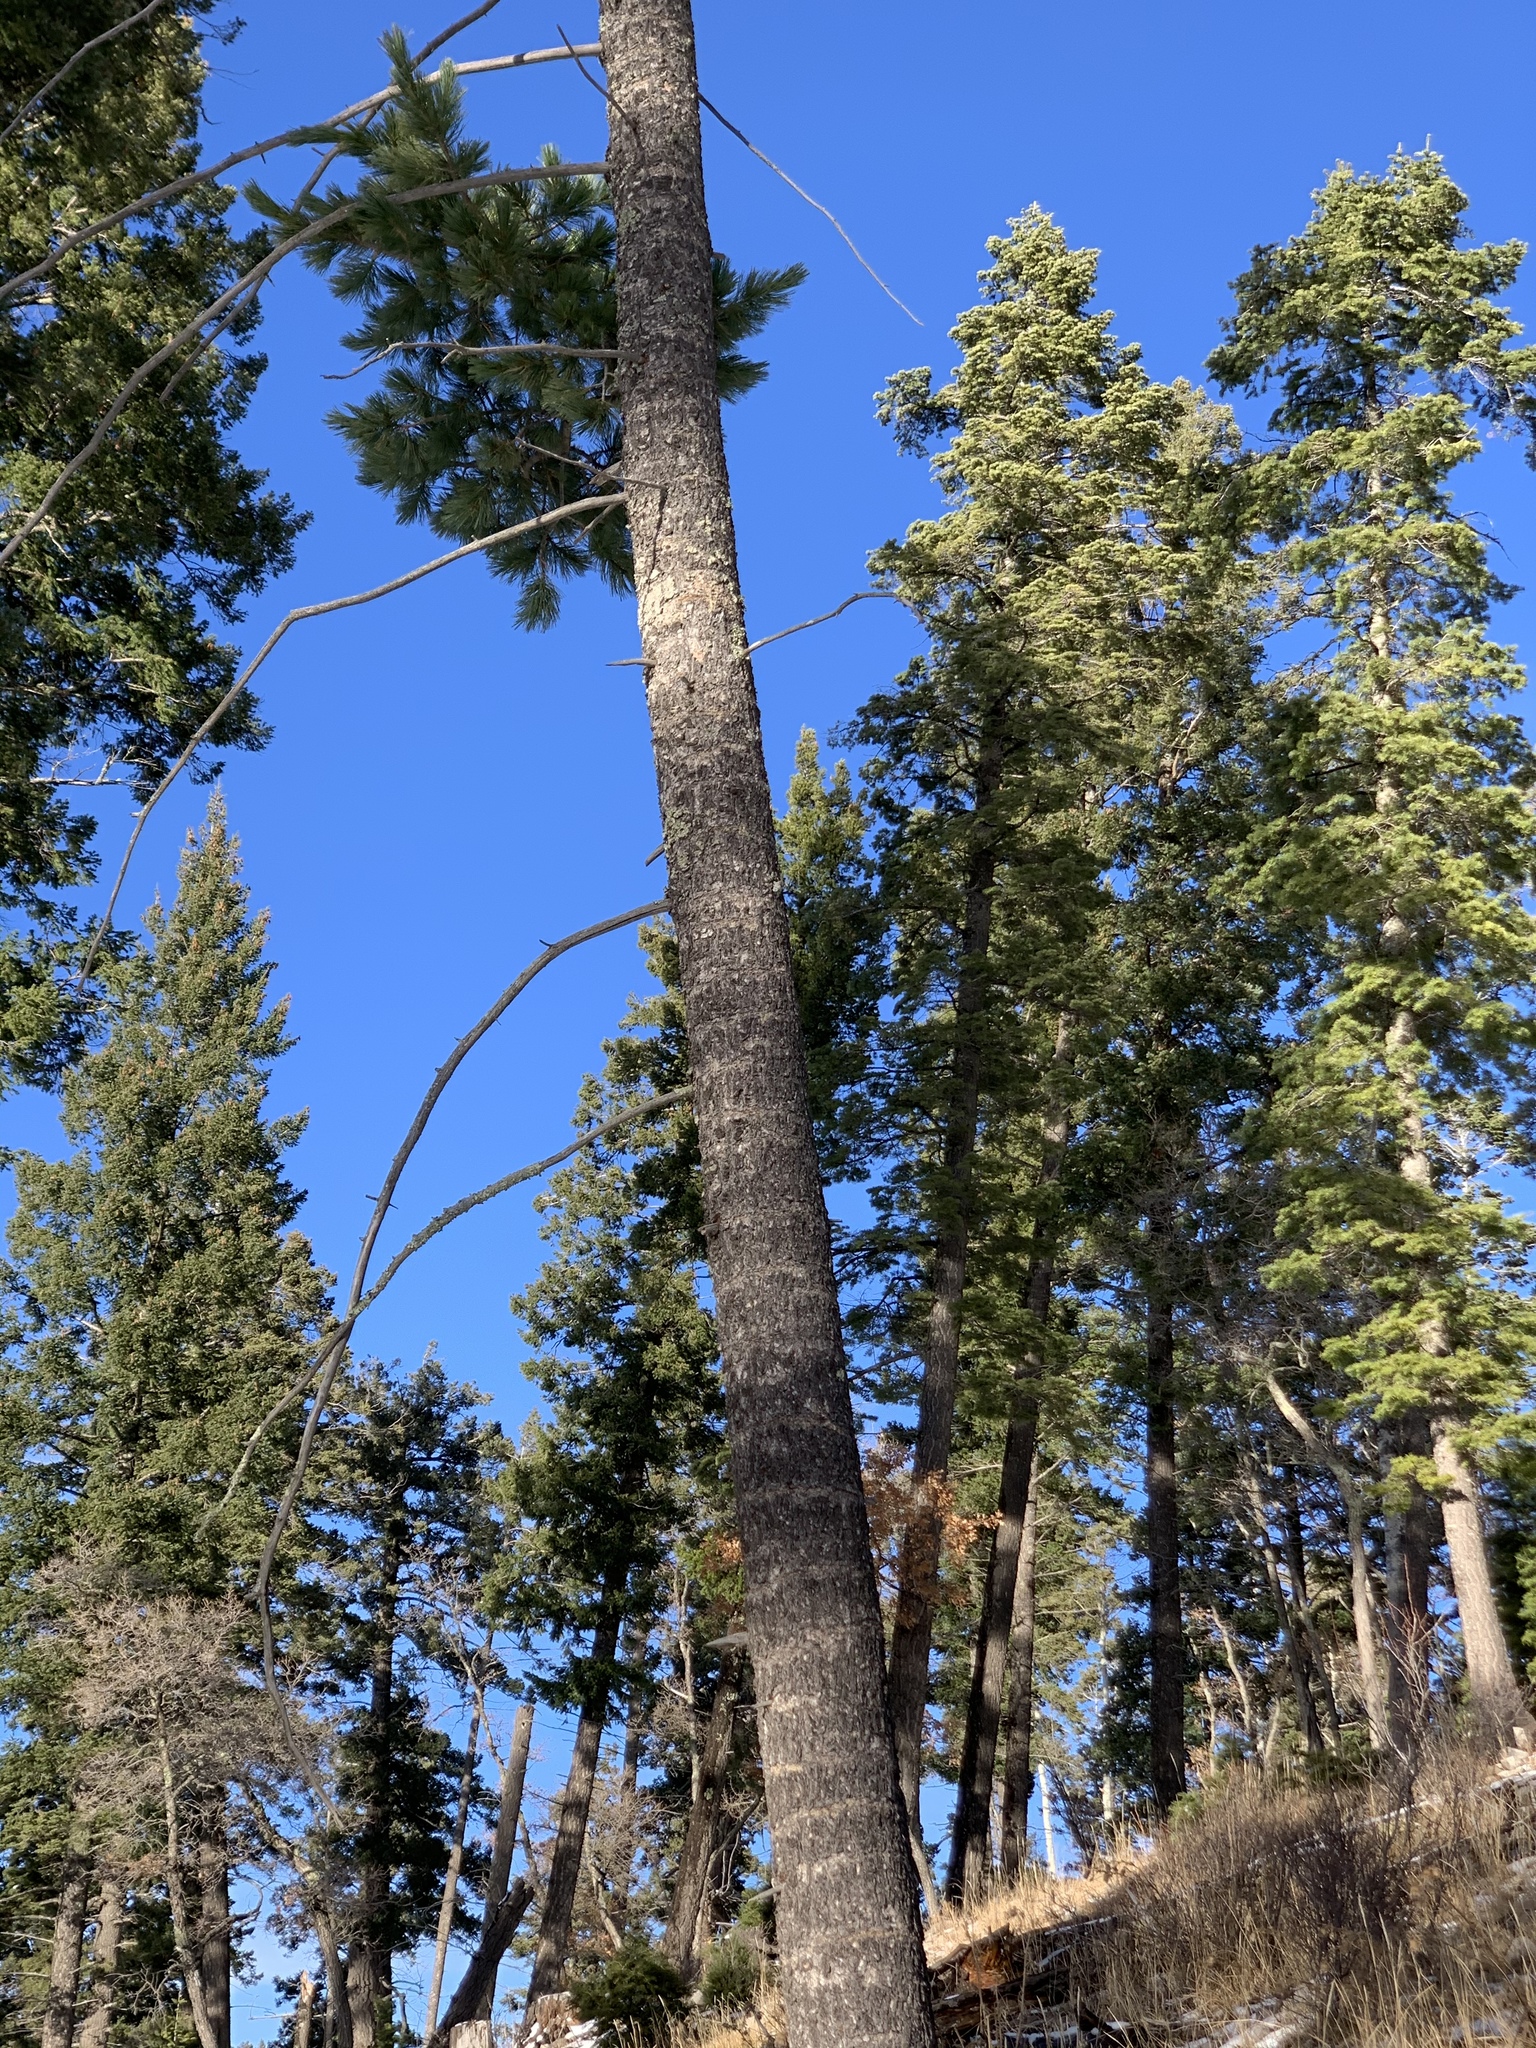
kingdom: Plantae
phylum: Tracheophyta
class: Pinopsida
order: Pinales
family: Pinaceae
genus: Pinus
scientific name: Pinus strobiformis
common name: Southwestern white pine
